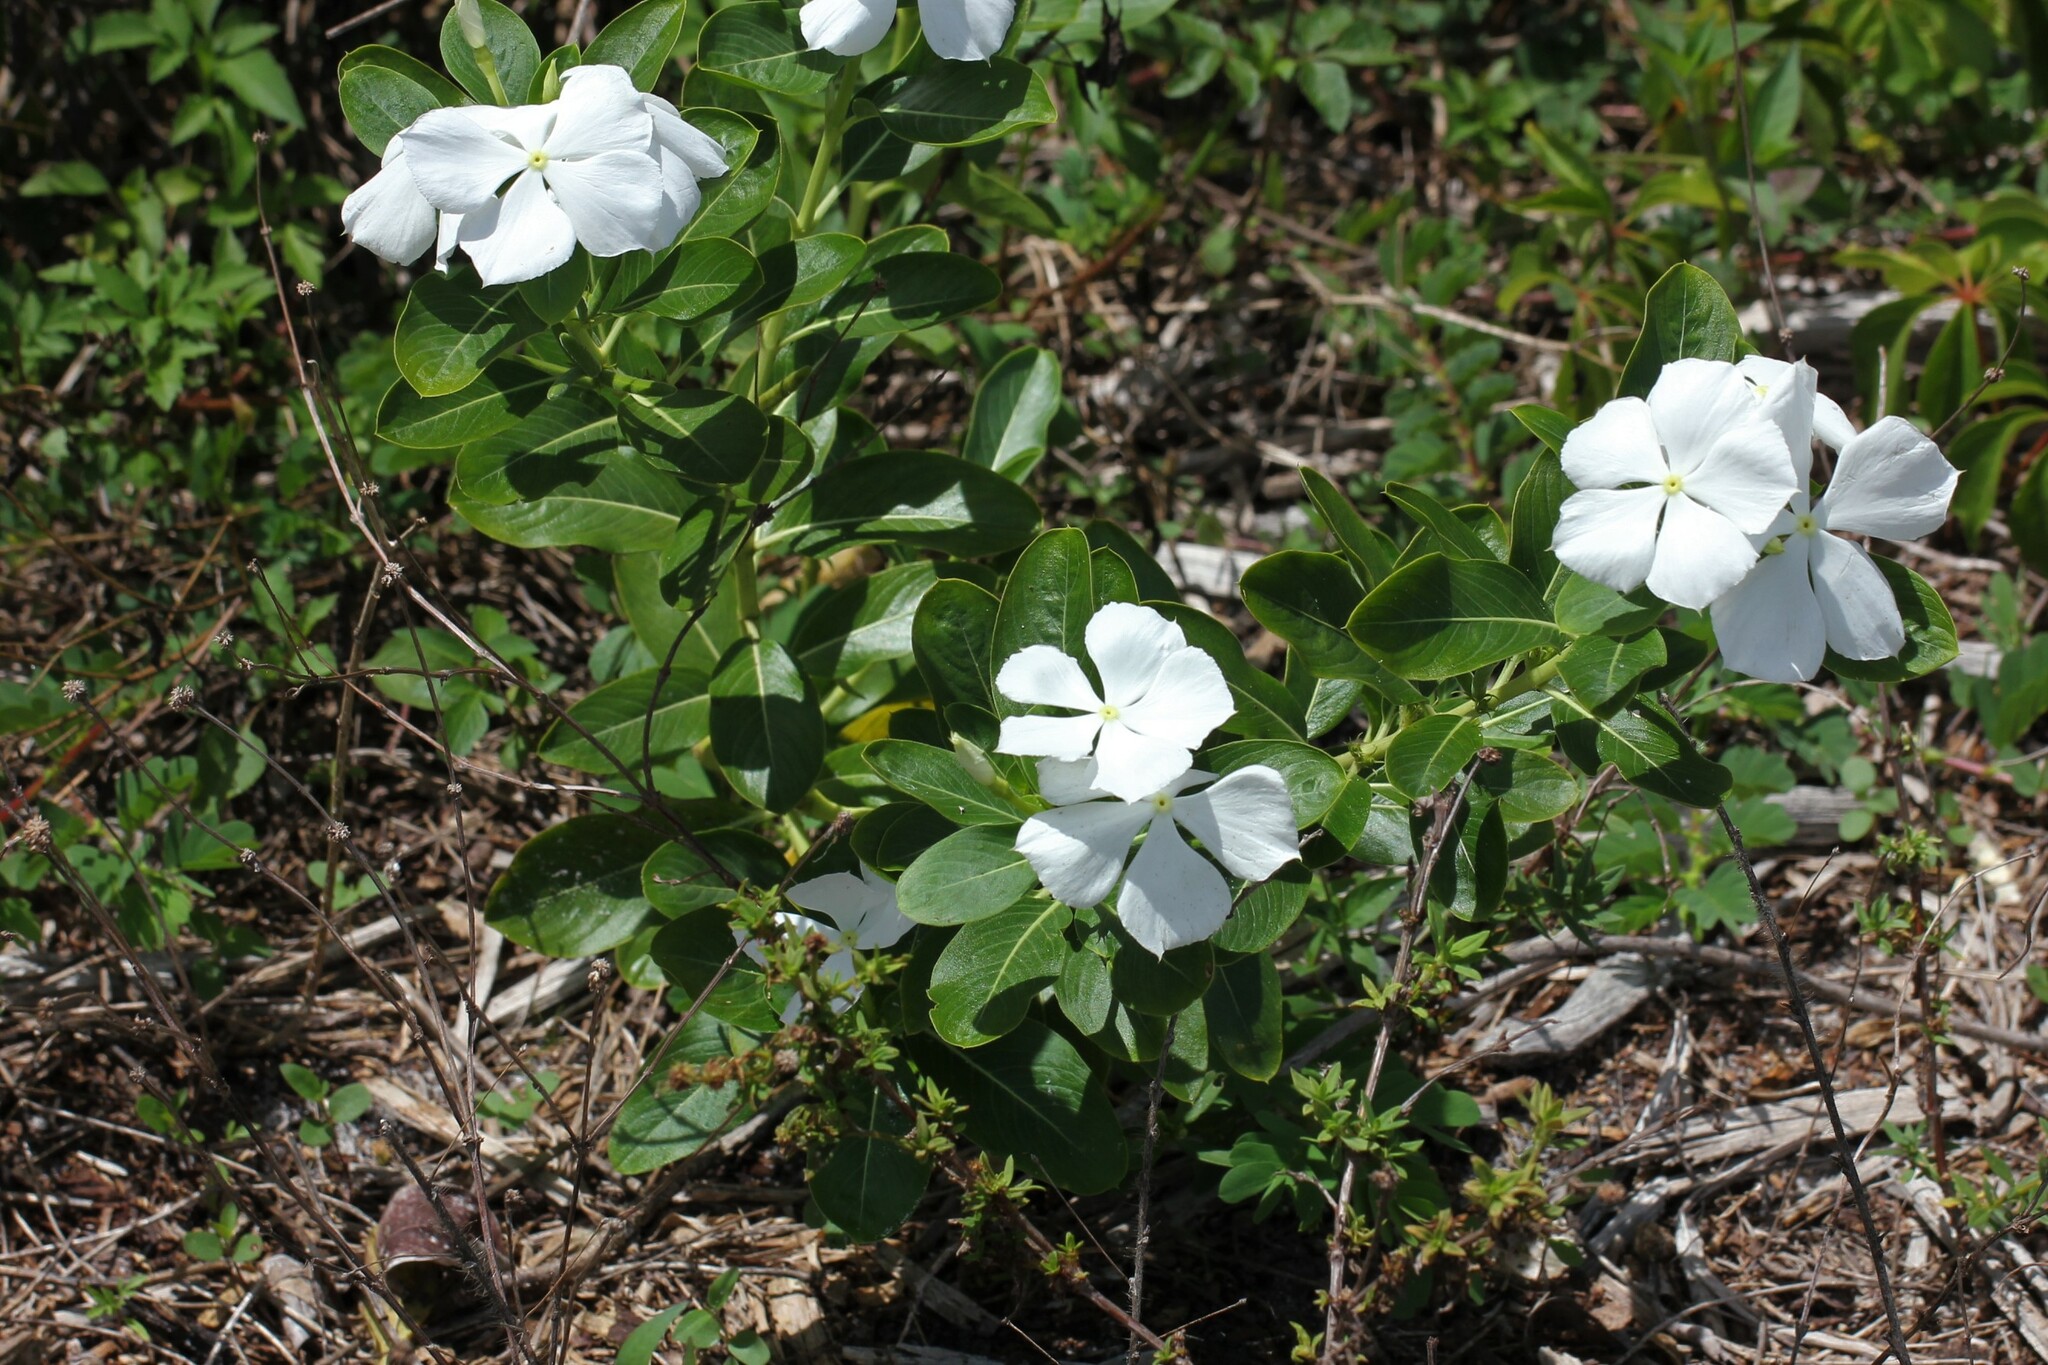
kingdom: Plantae
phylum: Tracheophyta
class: Magnoliopsida
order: Gentianales
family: Apocynaceae
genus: Catharanthus
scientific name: Catharanthus roseus
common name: Madagascar periwinkle
